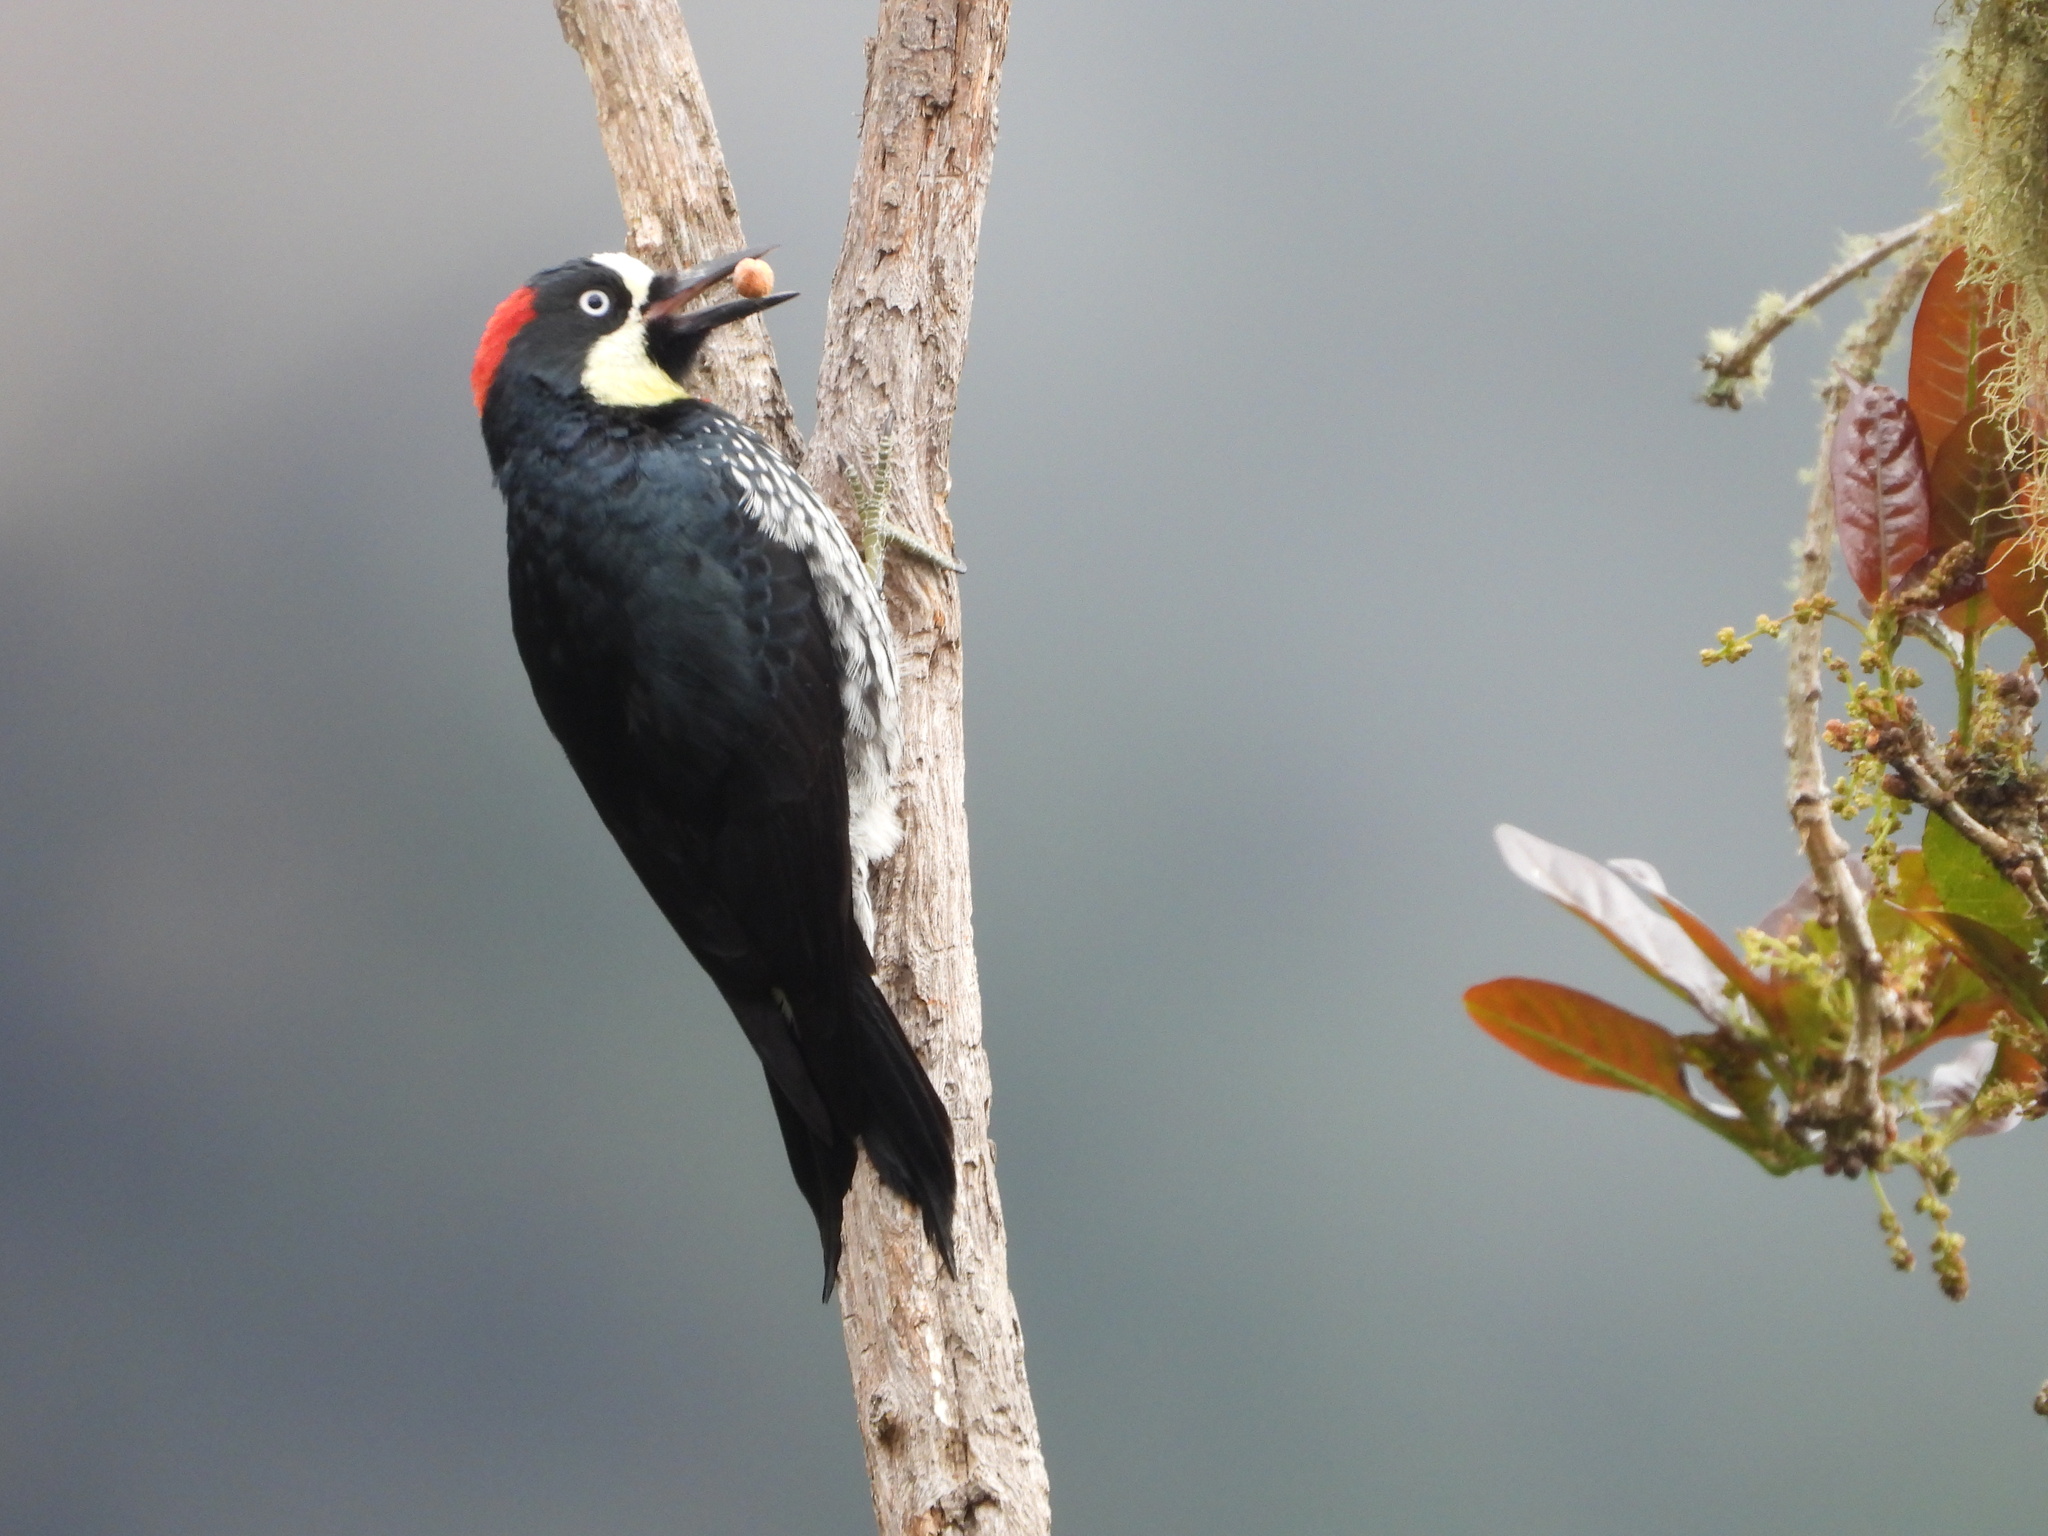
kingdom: Animalia
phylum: Chordata
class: Aves
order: Piciformes
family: Picidae
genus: Melanerpes
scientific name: Melanerpes formicivorus
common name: Acorn woodpecker
